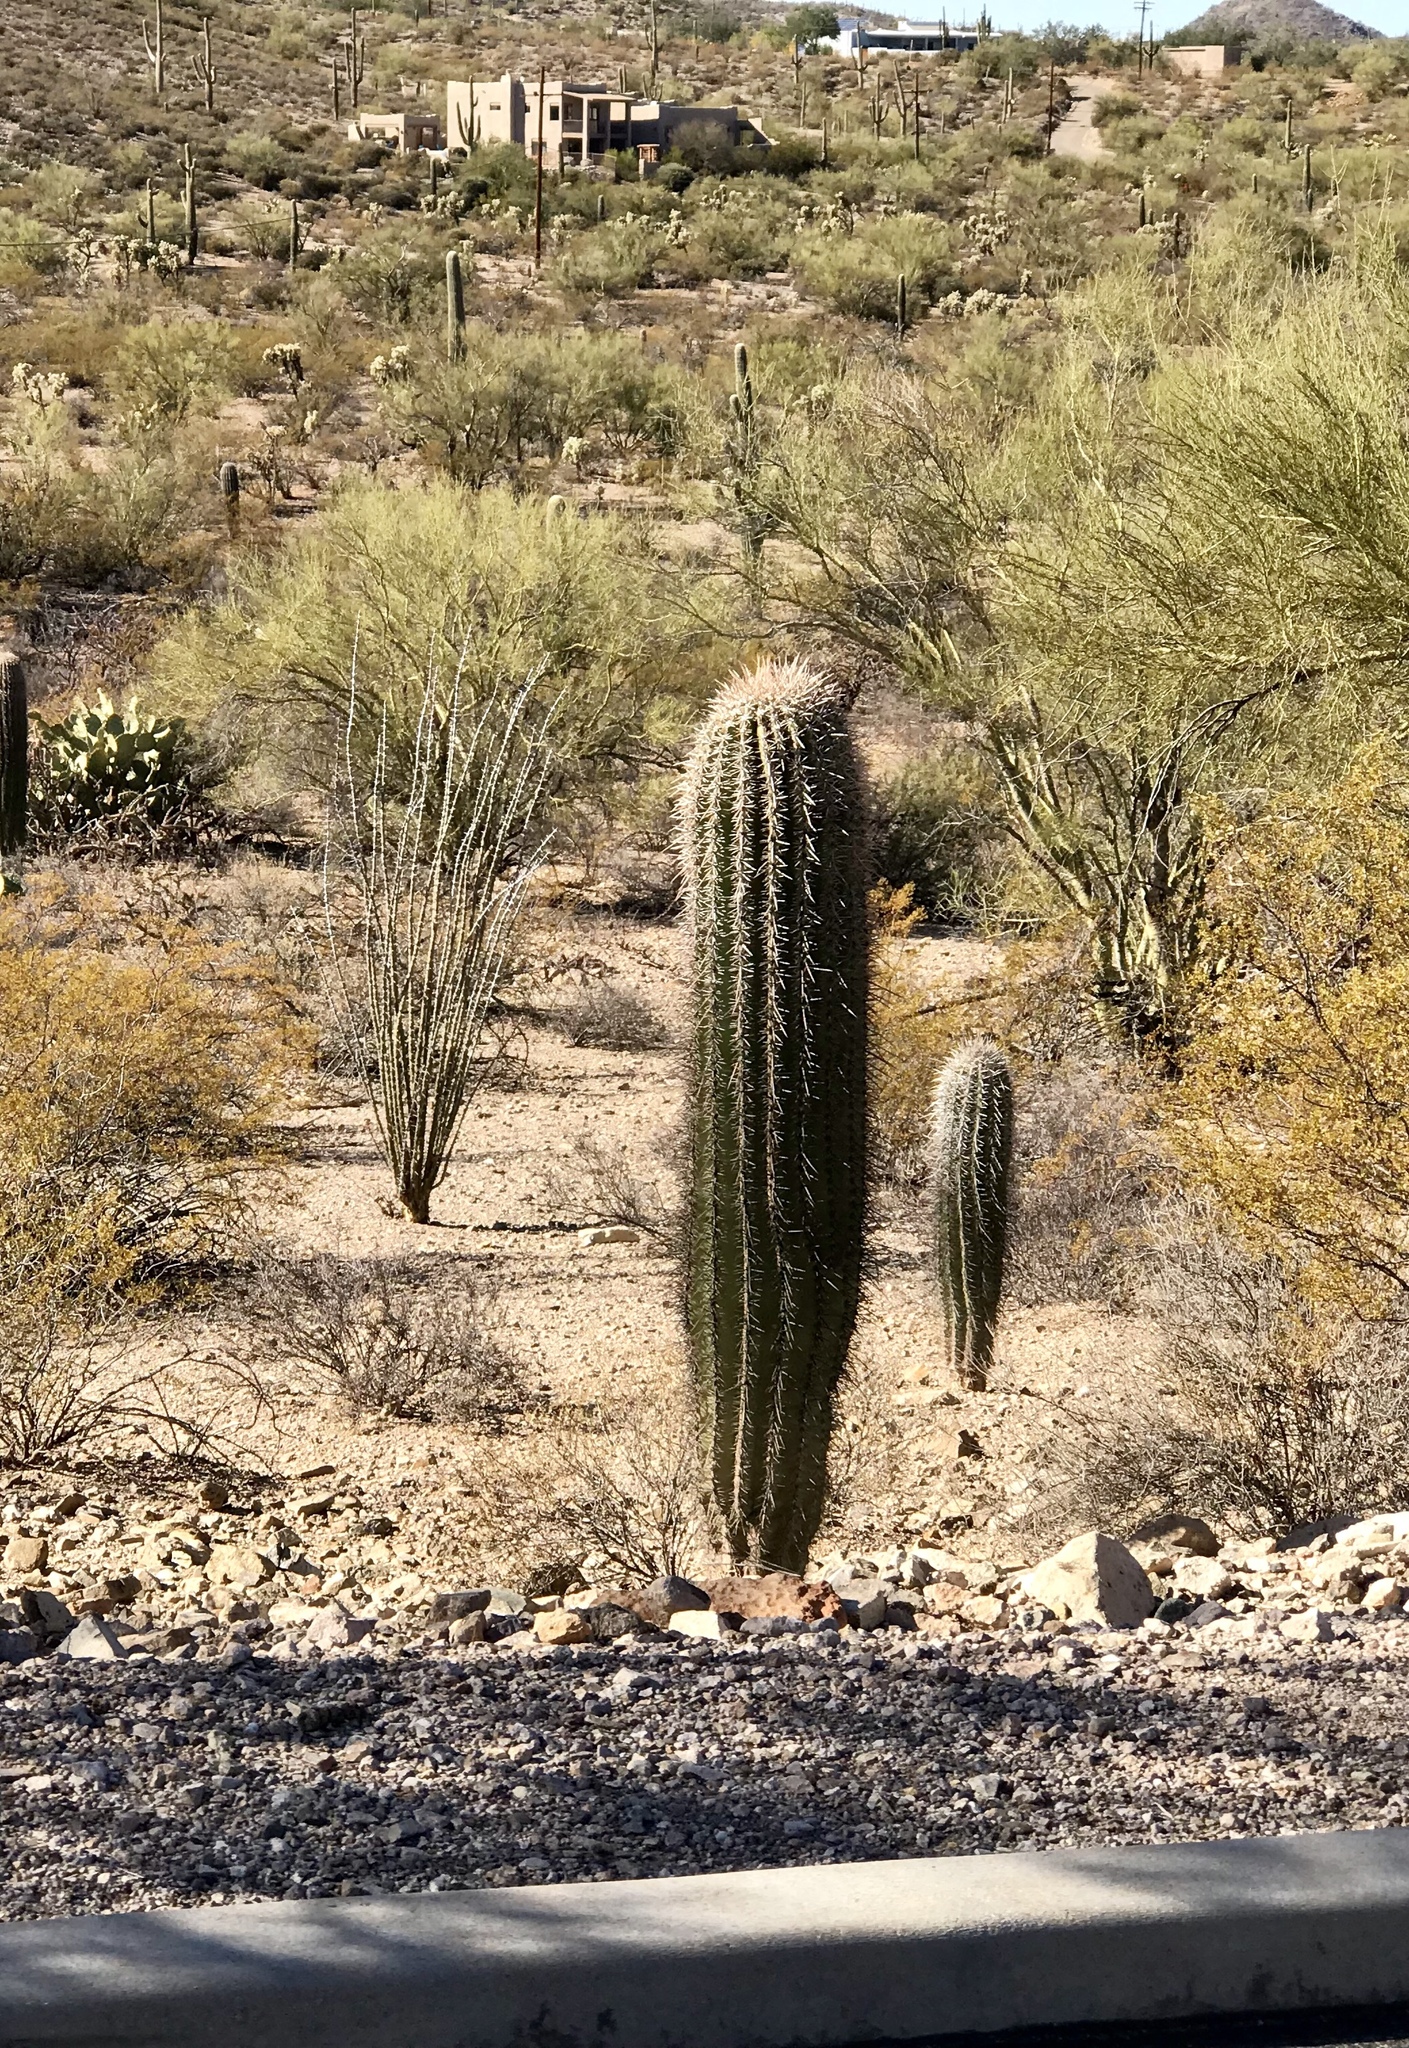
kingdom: Plantae
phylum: Tracheophyta
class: Magnoliopsida
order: Caryophyllales
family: Cactaceae
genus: Carnegiea
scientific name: Carnegiea gigantea
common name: Saguaro
